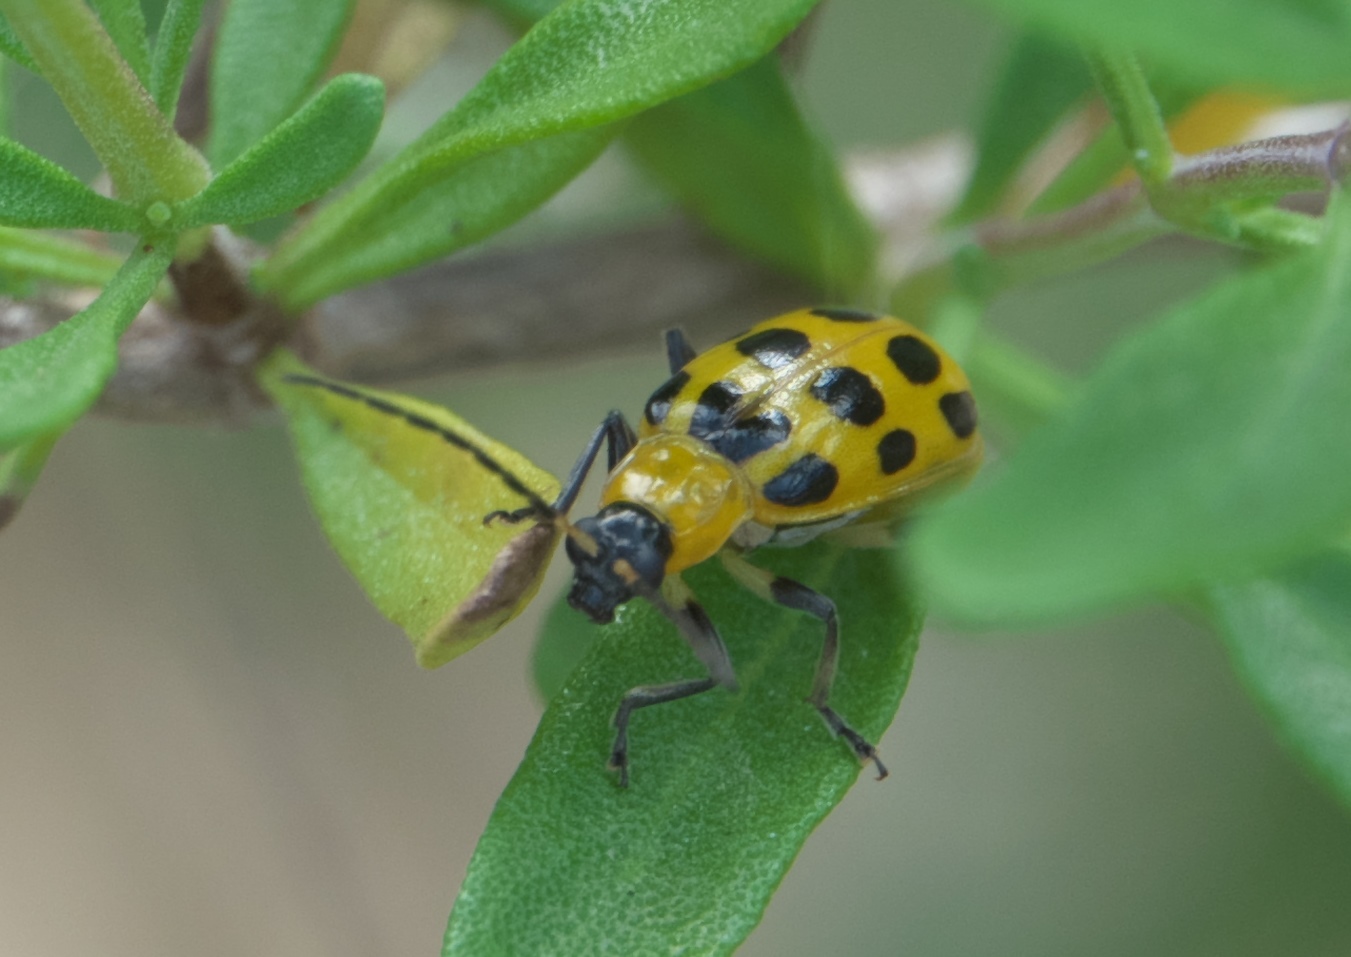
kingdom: Animalia
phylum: Arthropoda
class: Insecta
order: Coleoptera
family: Chrysomelidae
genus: Diabrotica
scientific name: Diabrotica undecimpunctata
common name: Spotted cucumber beetle
